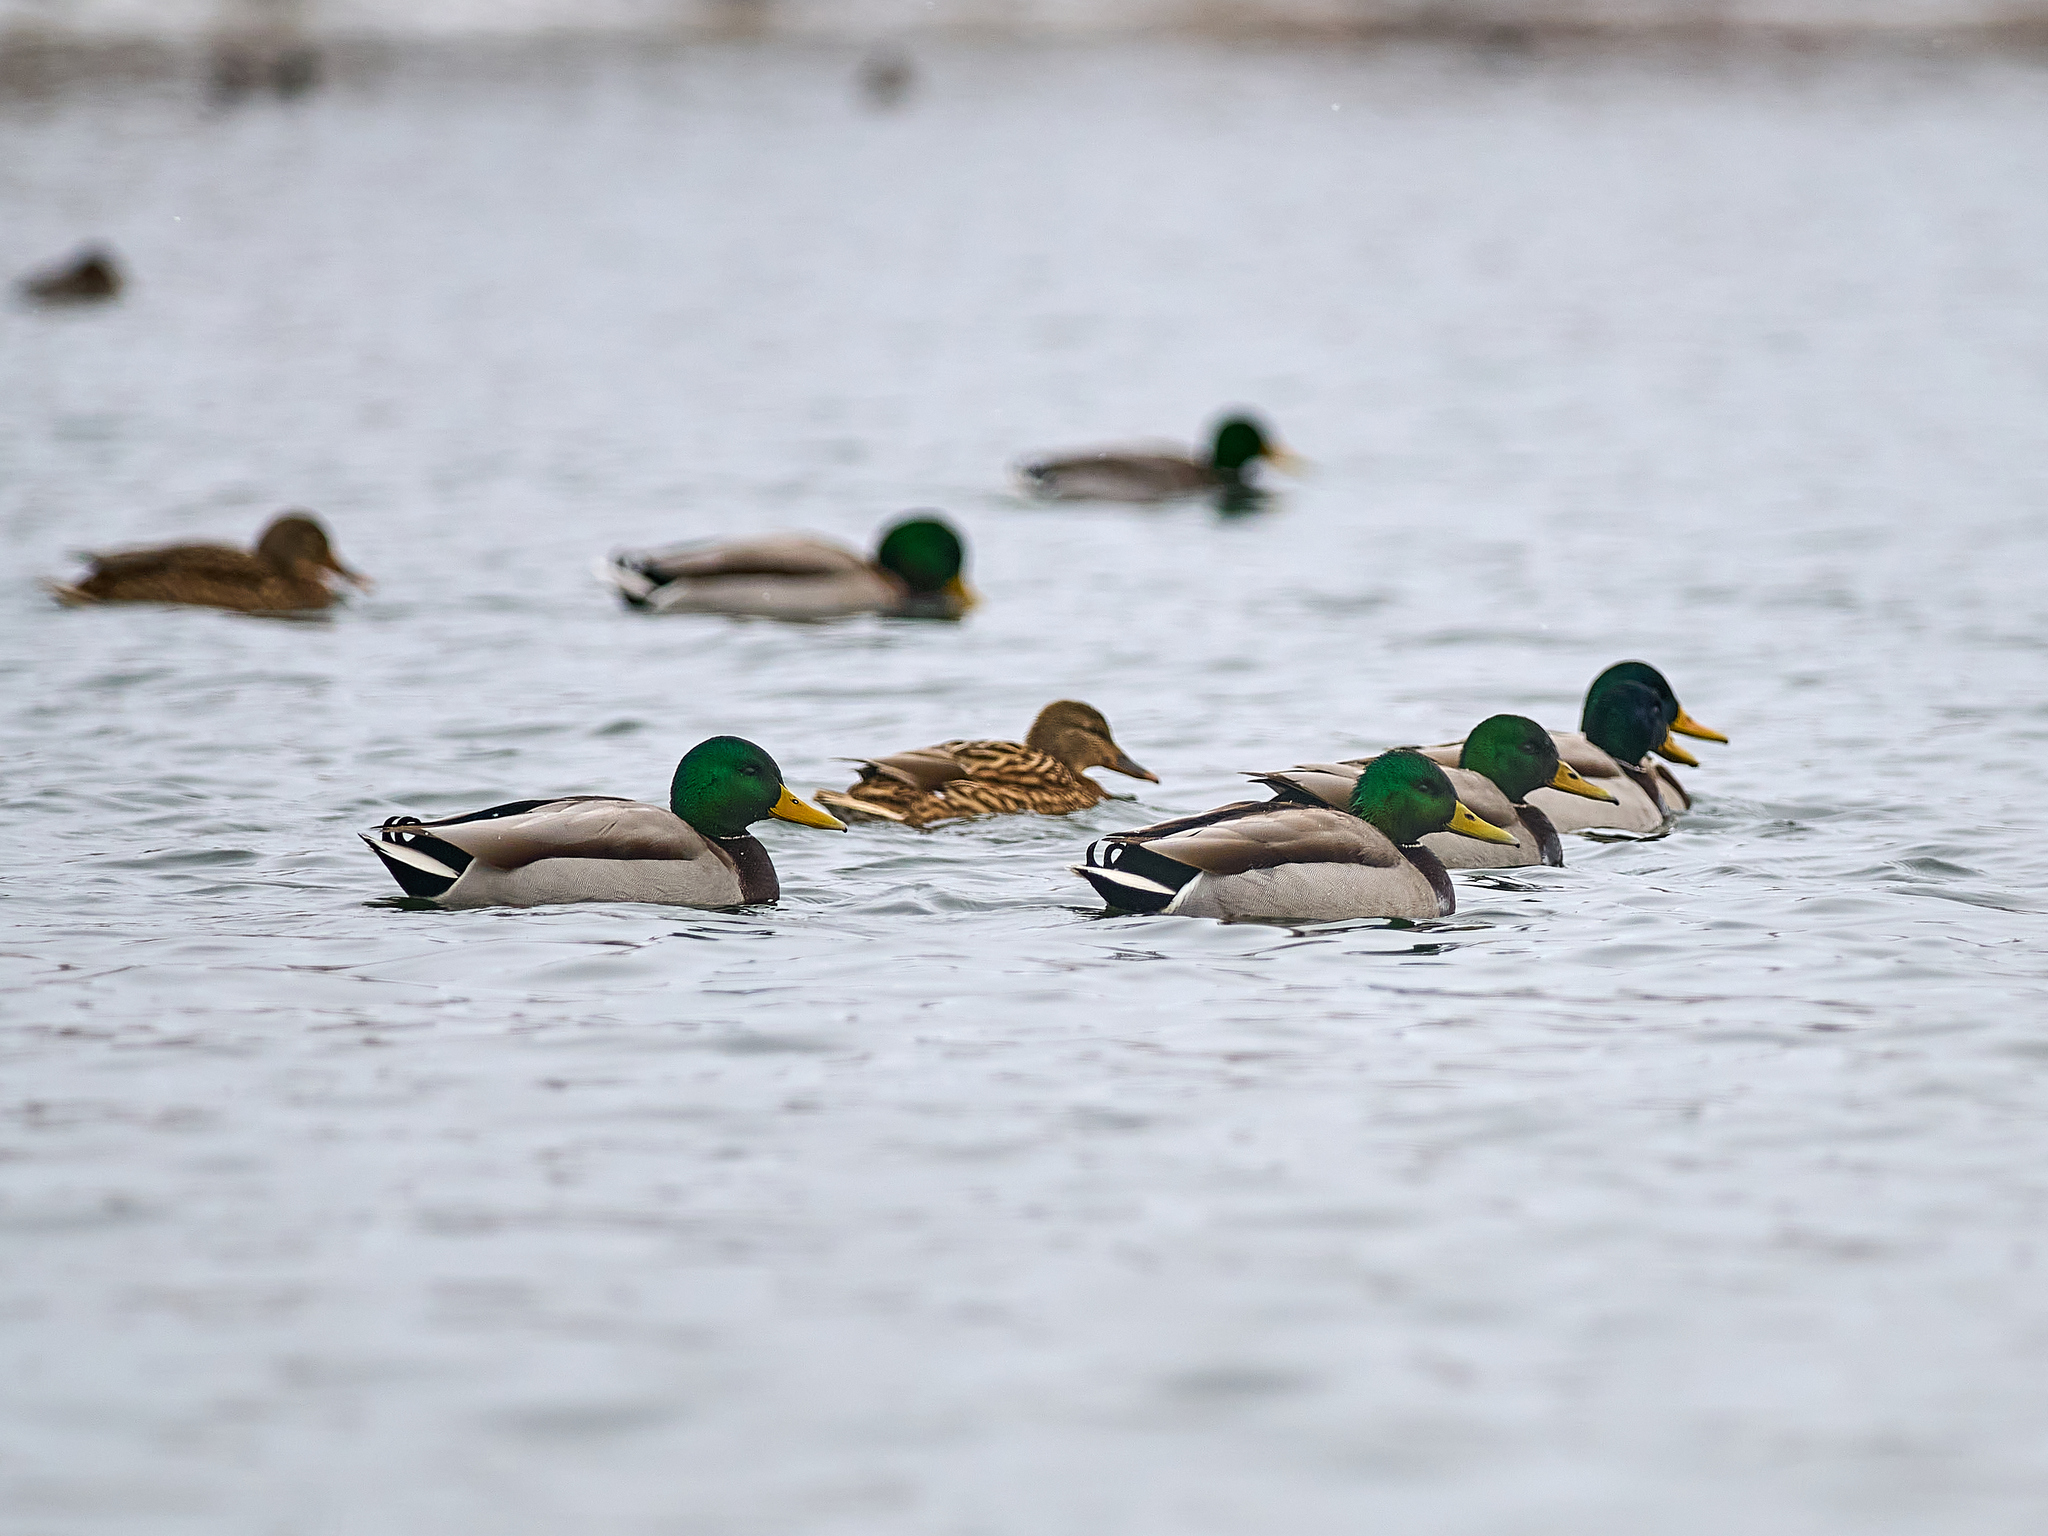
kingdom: Animalia
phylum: Chordata
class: Aves
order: Anseriformes
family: Anatidae
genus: Anas
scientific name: Anas platyrhynchos
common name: Mallard
